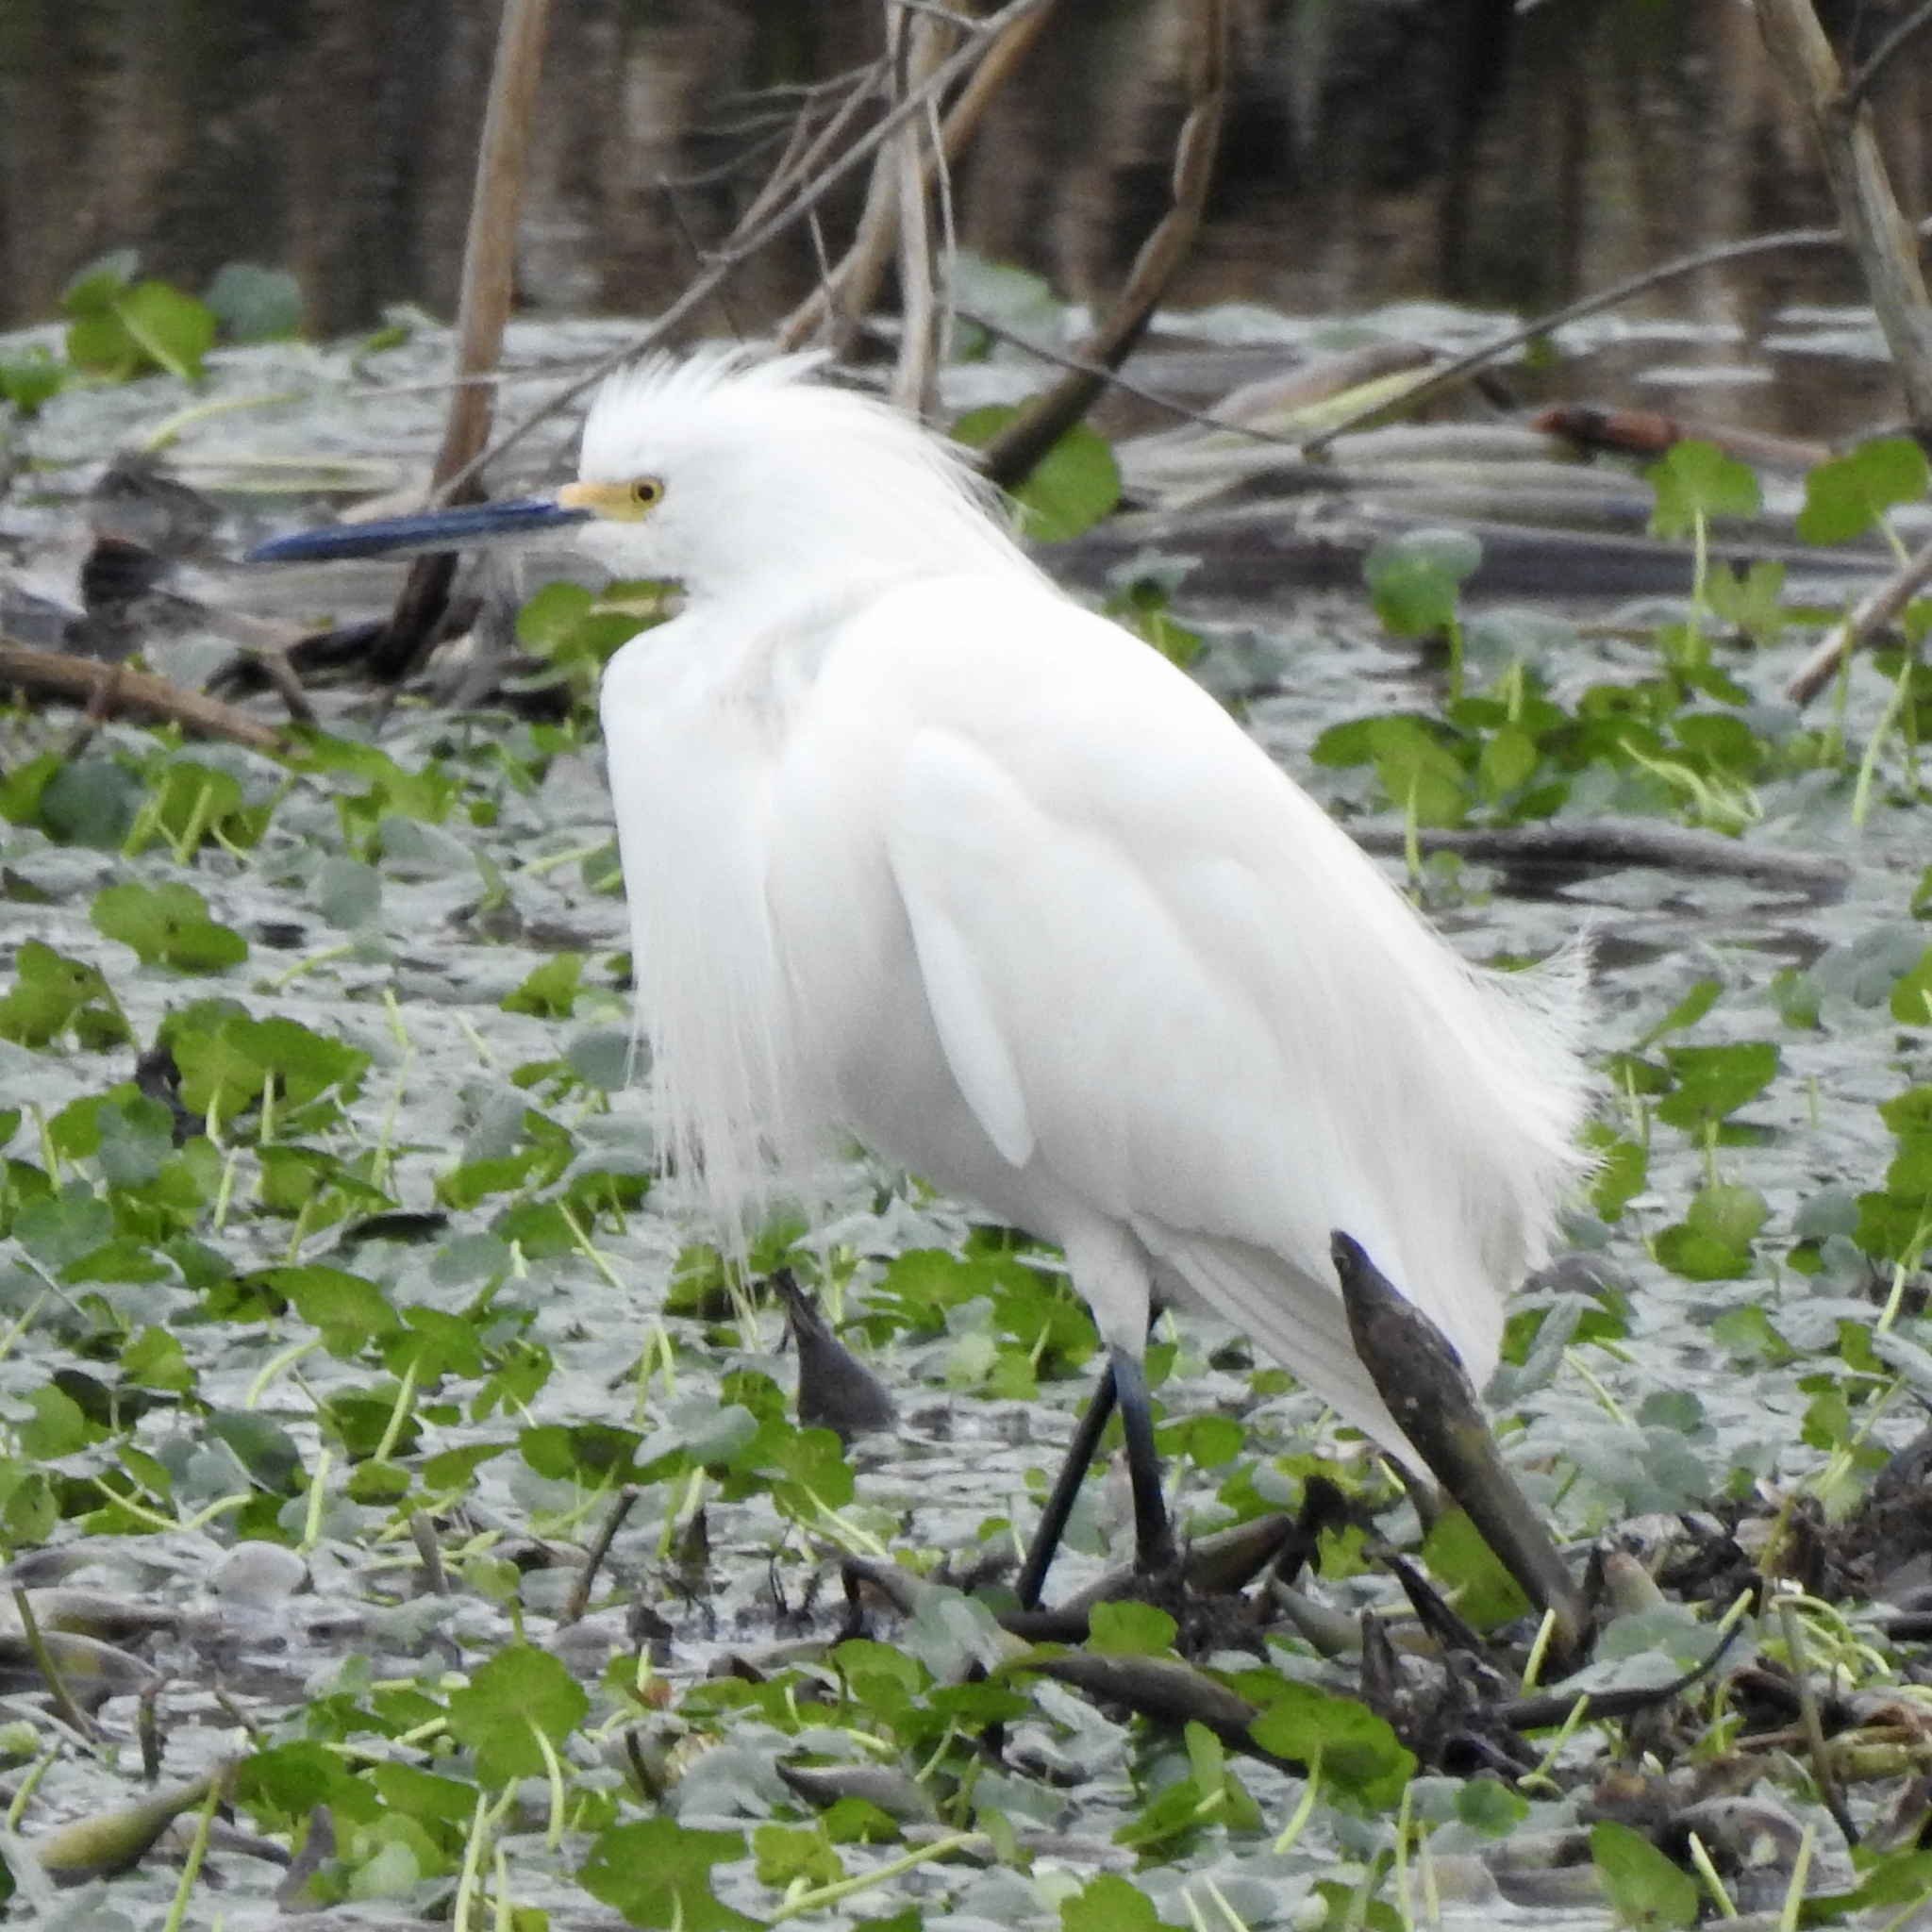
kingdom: Animalia
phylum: Chordata
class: Aves
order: Pelecaniformes
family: Ardeidae
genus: Egretta
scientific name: Egretta thula
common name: Snowy egret
